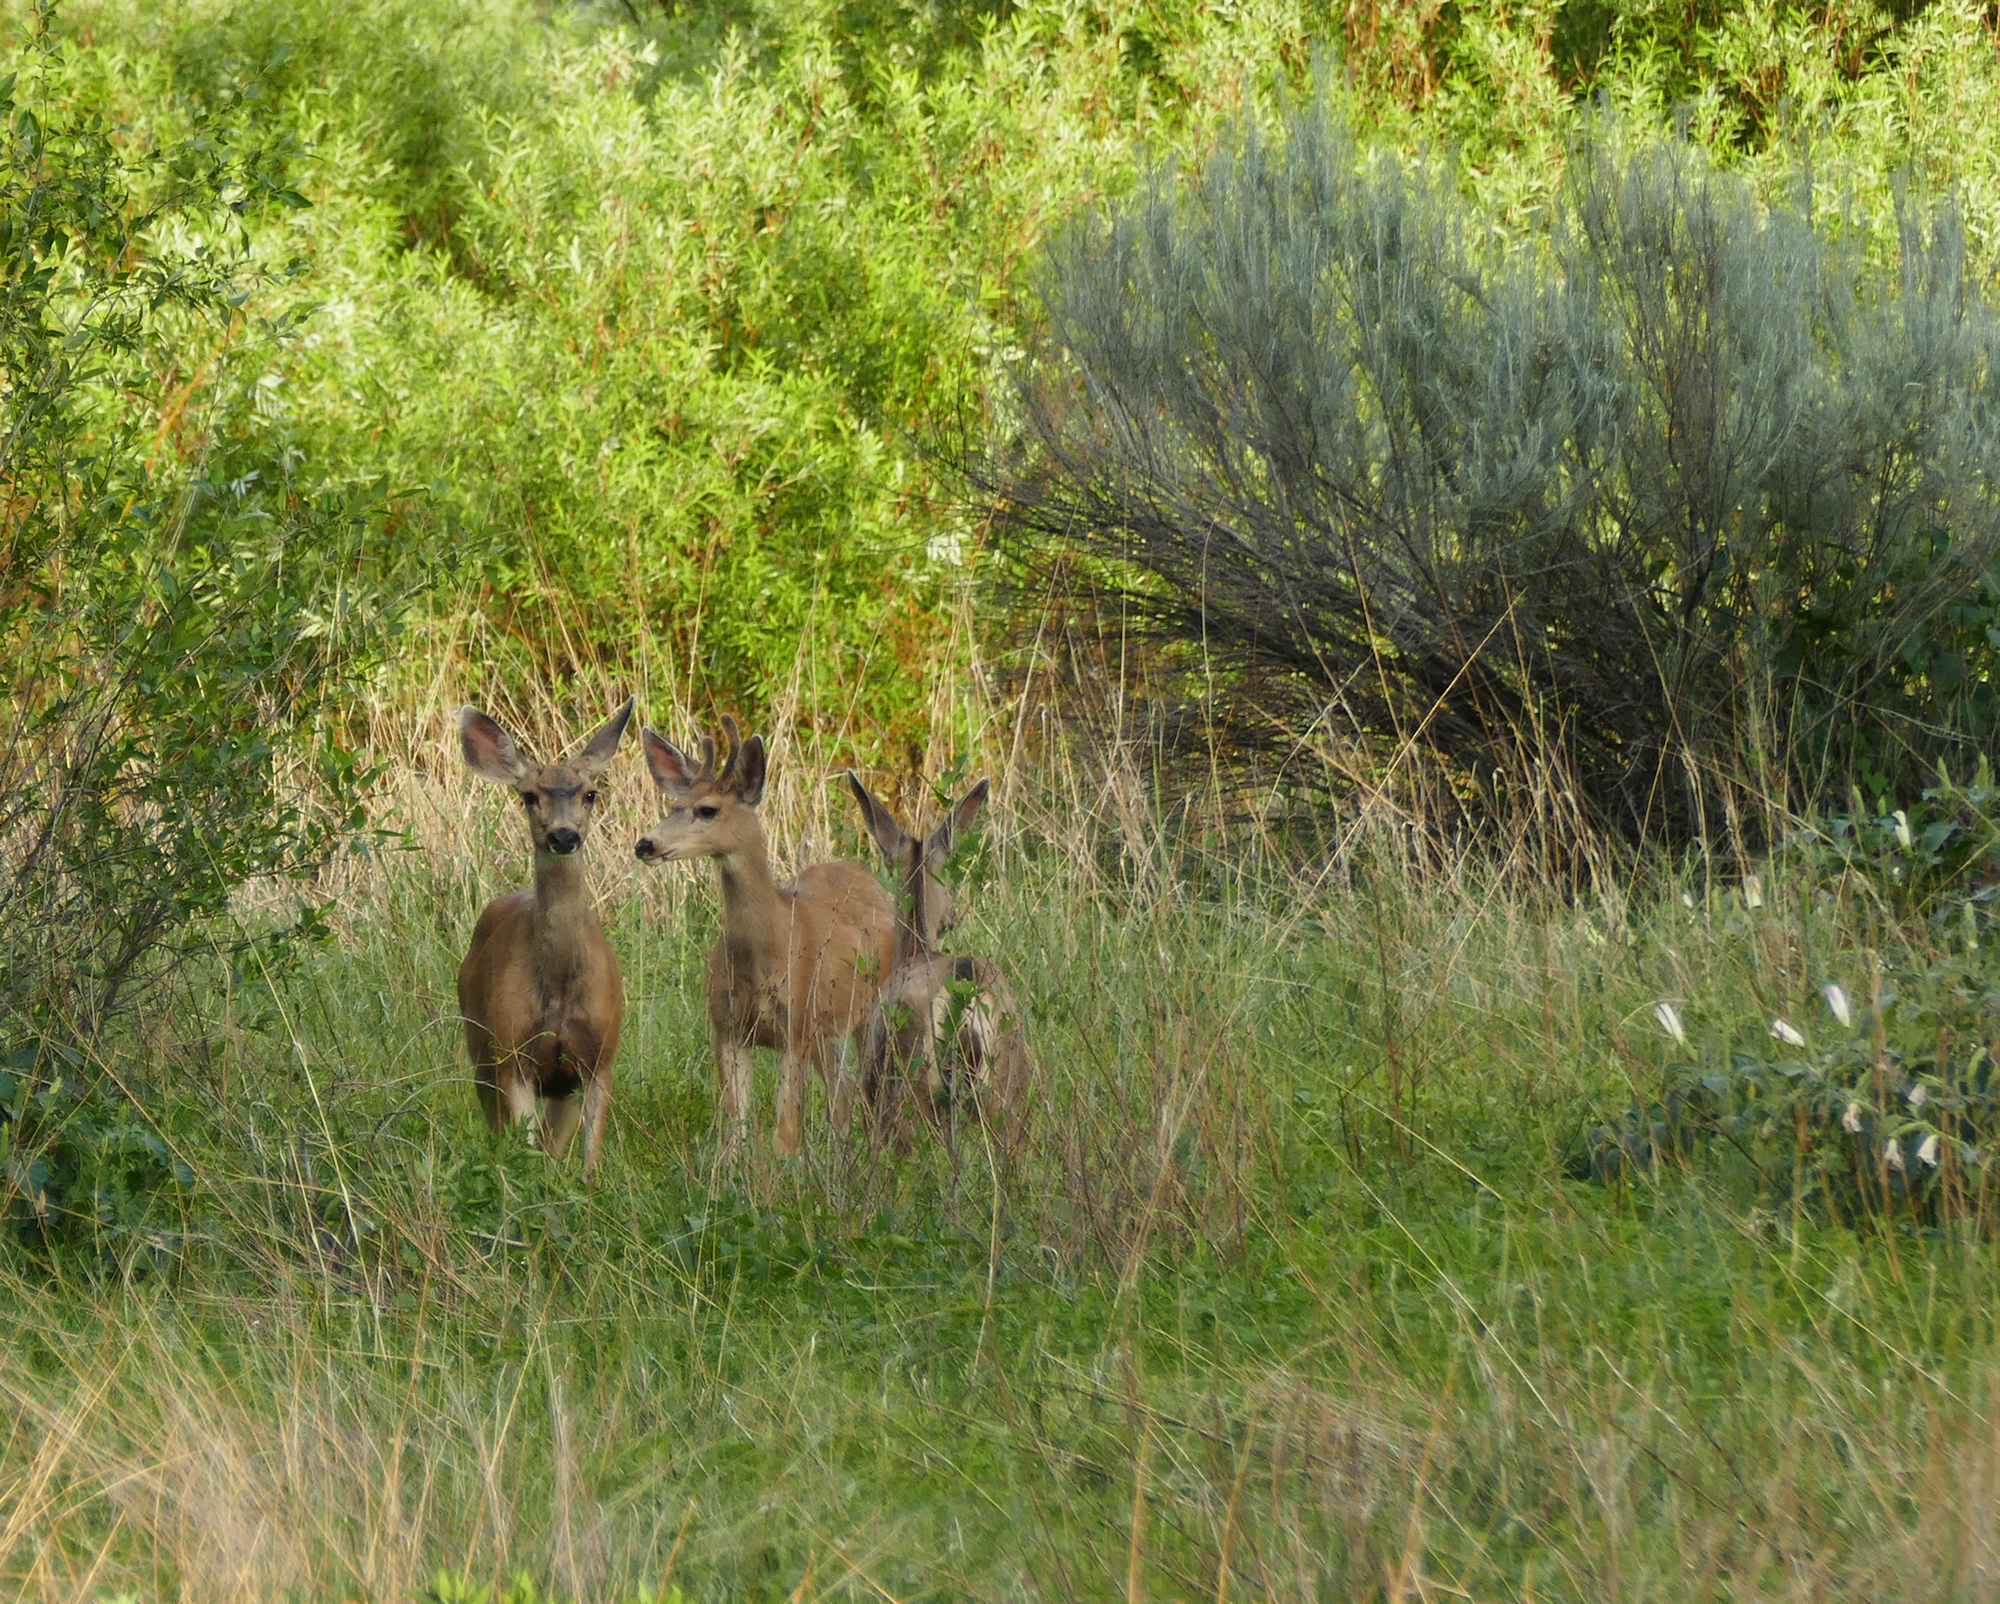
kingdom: Animalia
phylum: Chordata
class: Mammalia
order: Artiodactyla
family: Cervidae
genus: Odocoileus
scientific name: Odocoileus hemionus
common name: Mule deer
